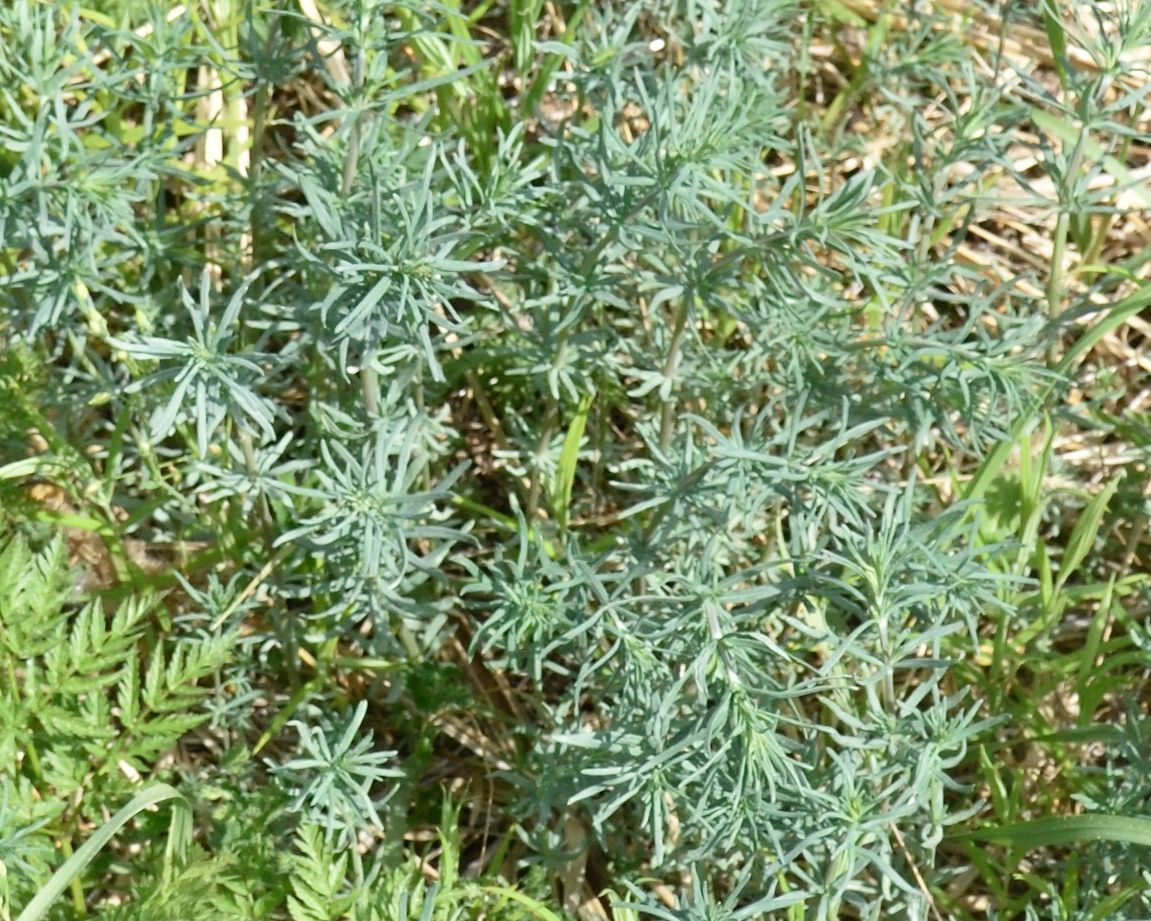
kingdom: Plantae
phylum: Tracheophyta
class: Magnoliopsida
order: Gentianales
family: Rubiaceae
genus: Galium
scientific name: Galium verum
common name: Lady's bedstraw
